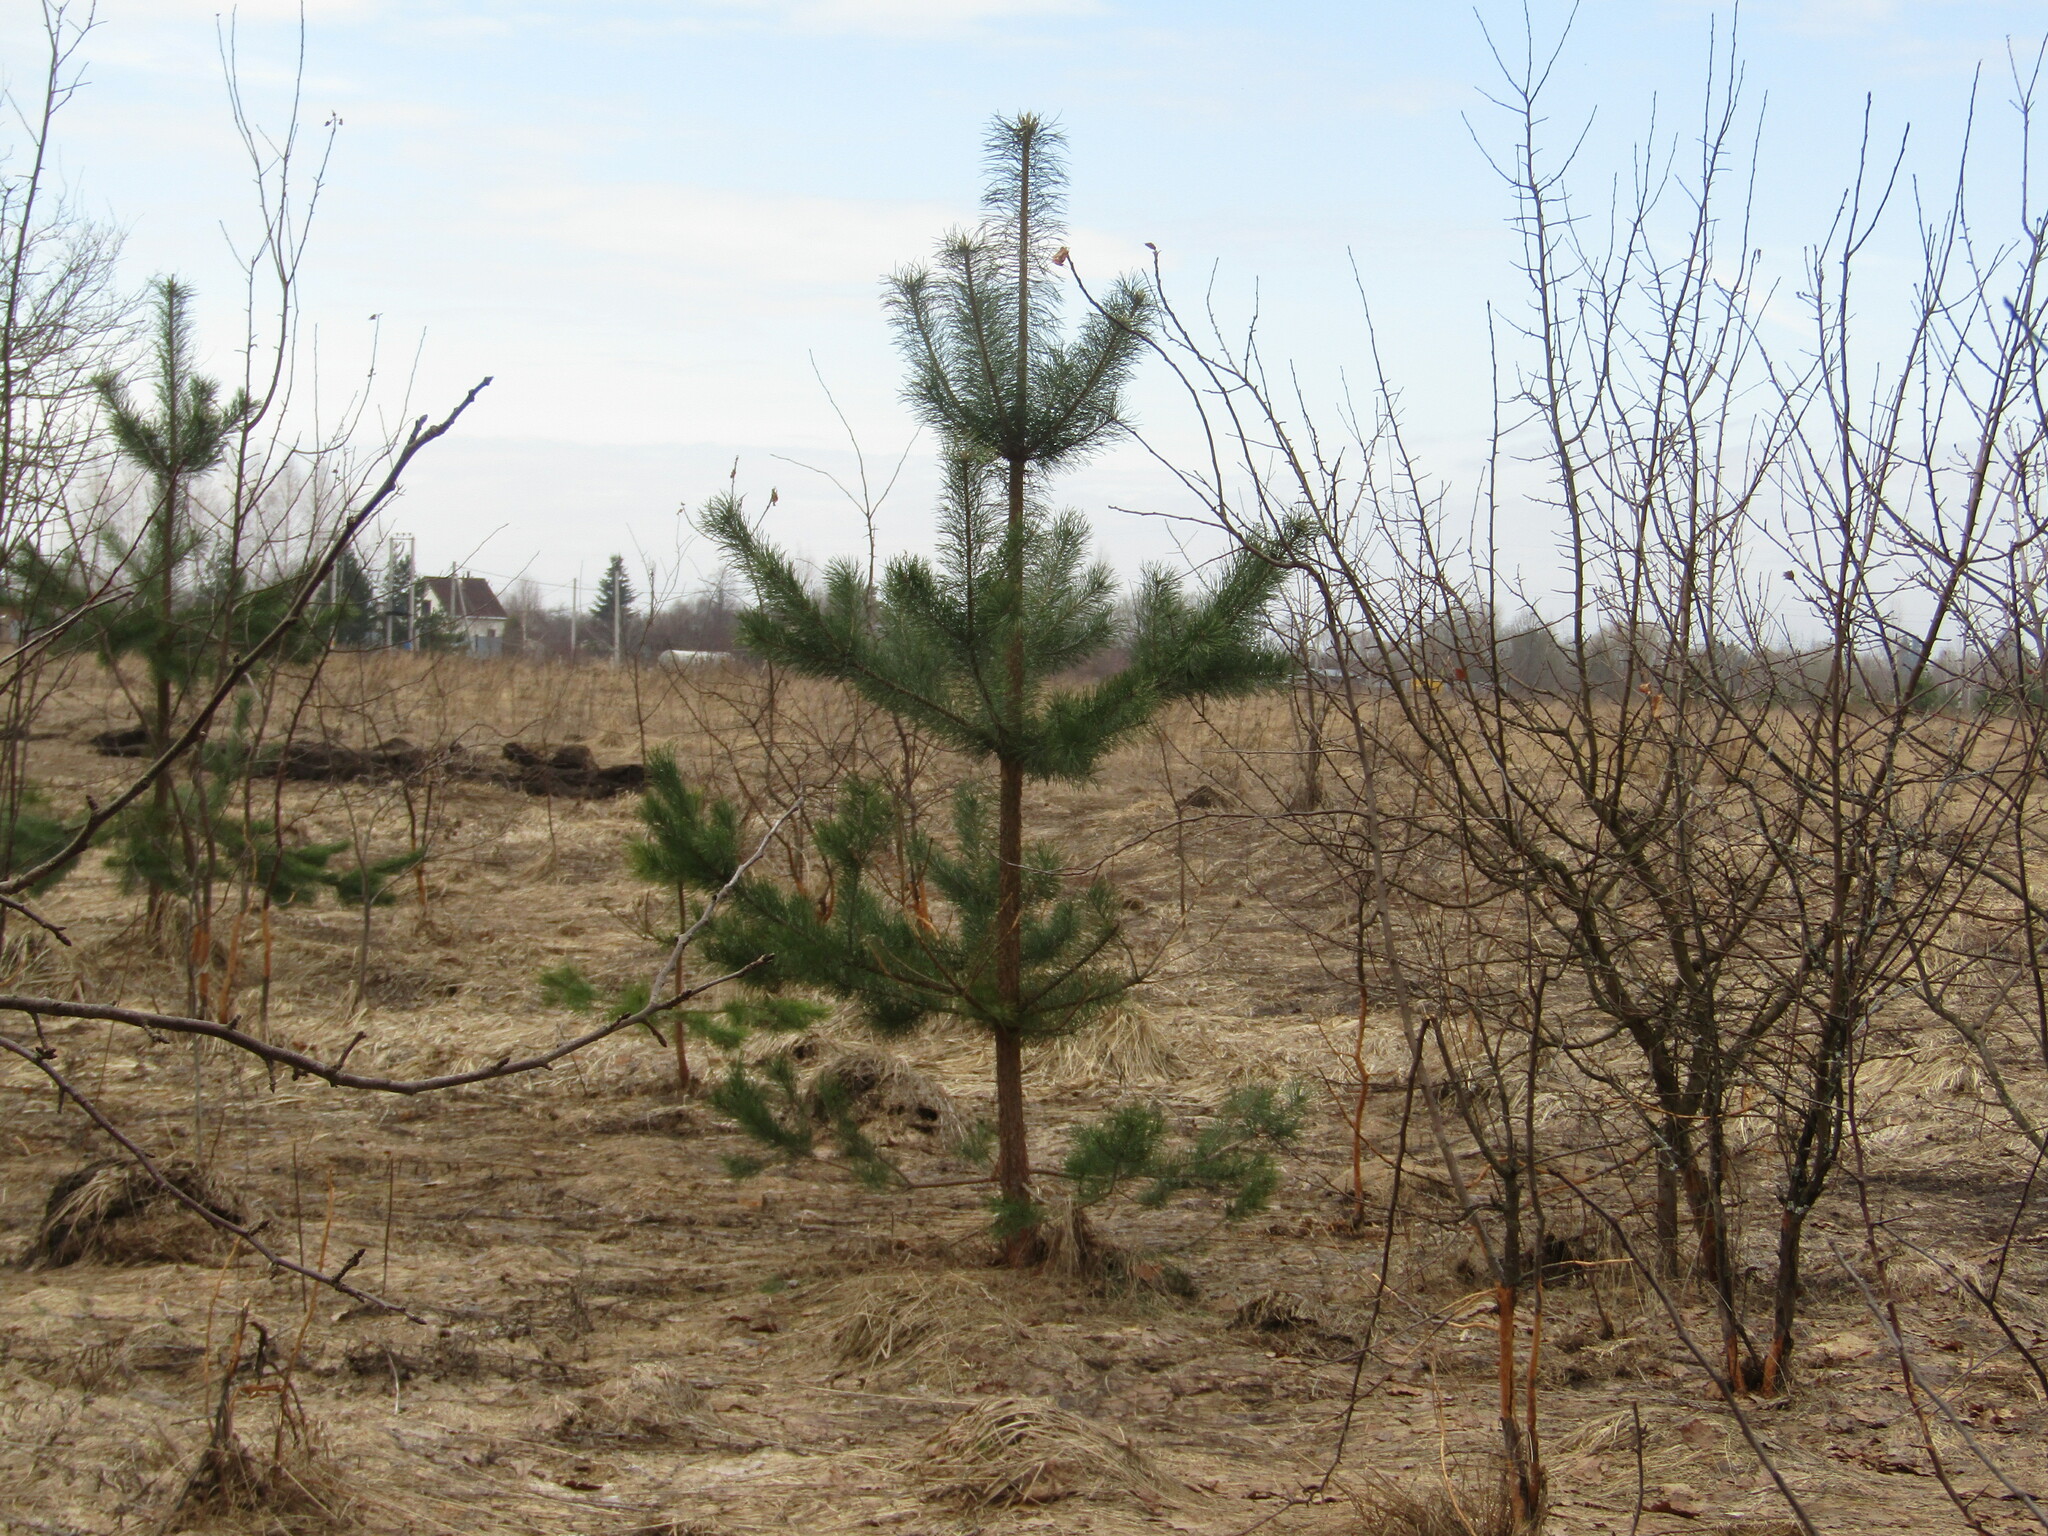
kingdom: Plantae
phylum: Tracheophyta
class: Pinopsida
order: Pinales
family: Pinaceae
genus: Pinus
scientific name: Pinus sylvestris
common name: Scots pine
